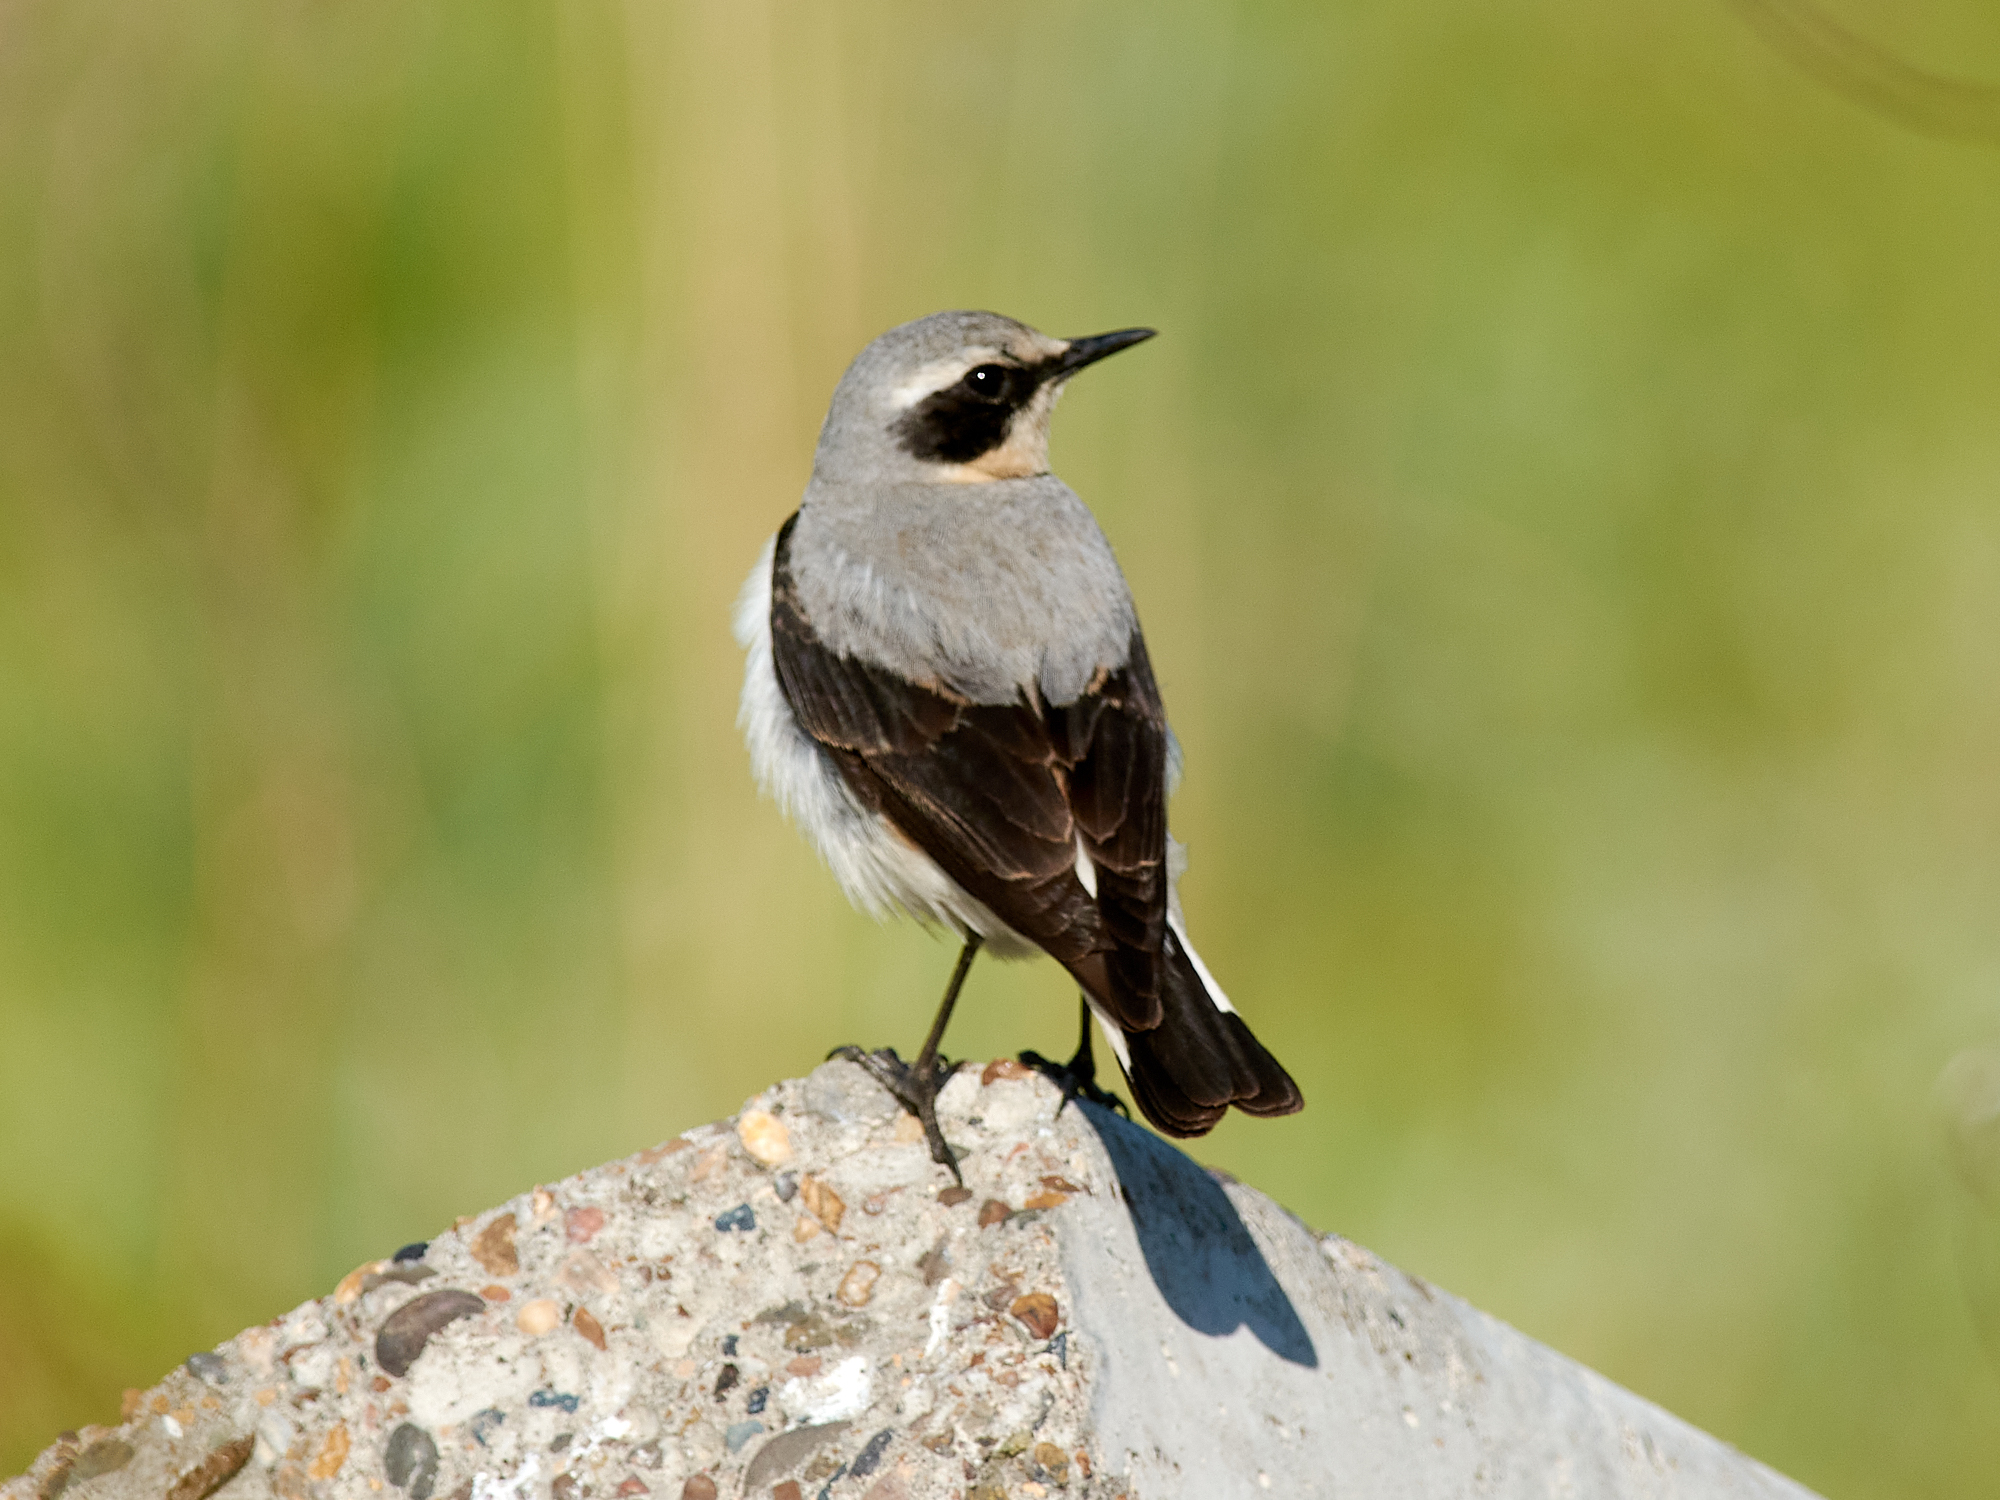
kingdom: Animalia
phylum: Chordata
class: Aves
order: Passeriformes
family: Muscicapidae
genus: Oenanthe
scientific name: Oenanthe oenanthe
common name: Northern wheatear
